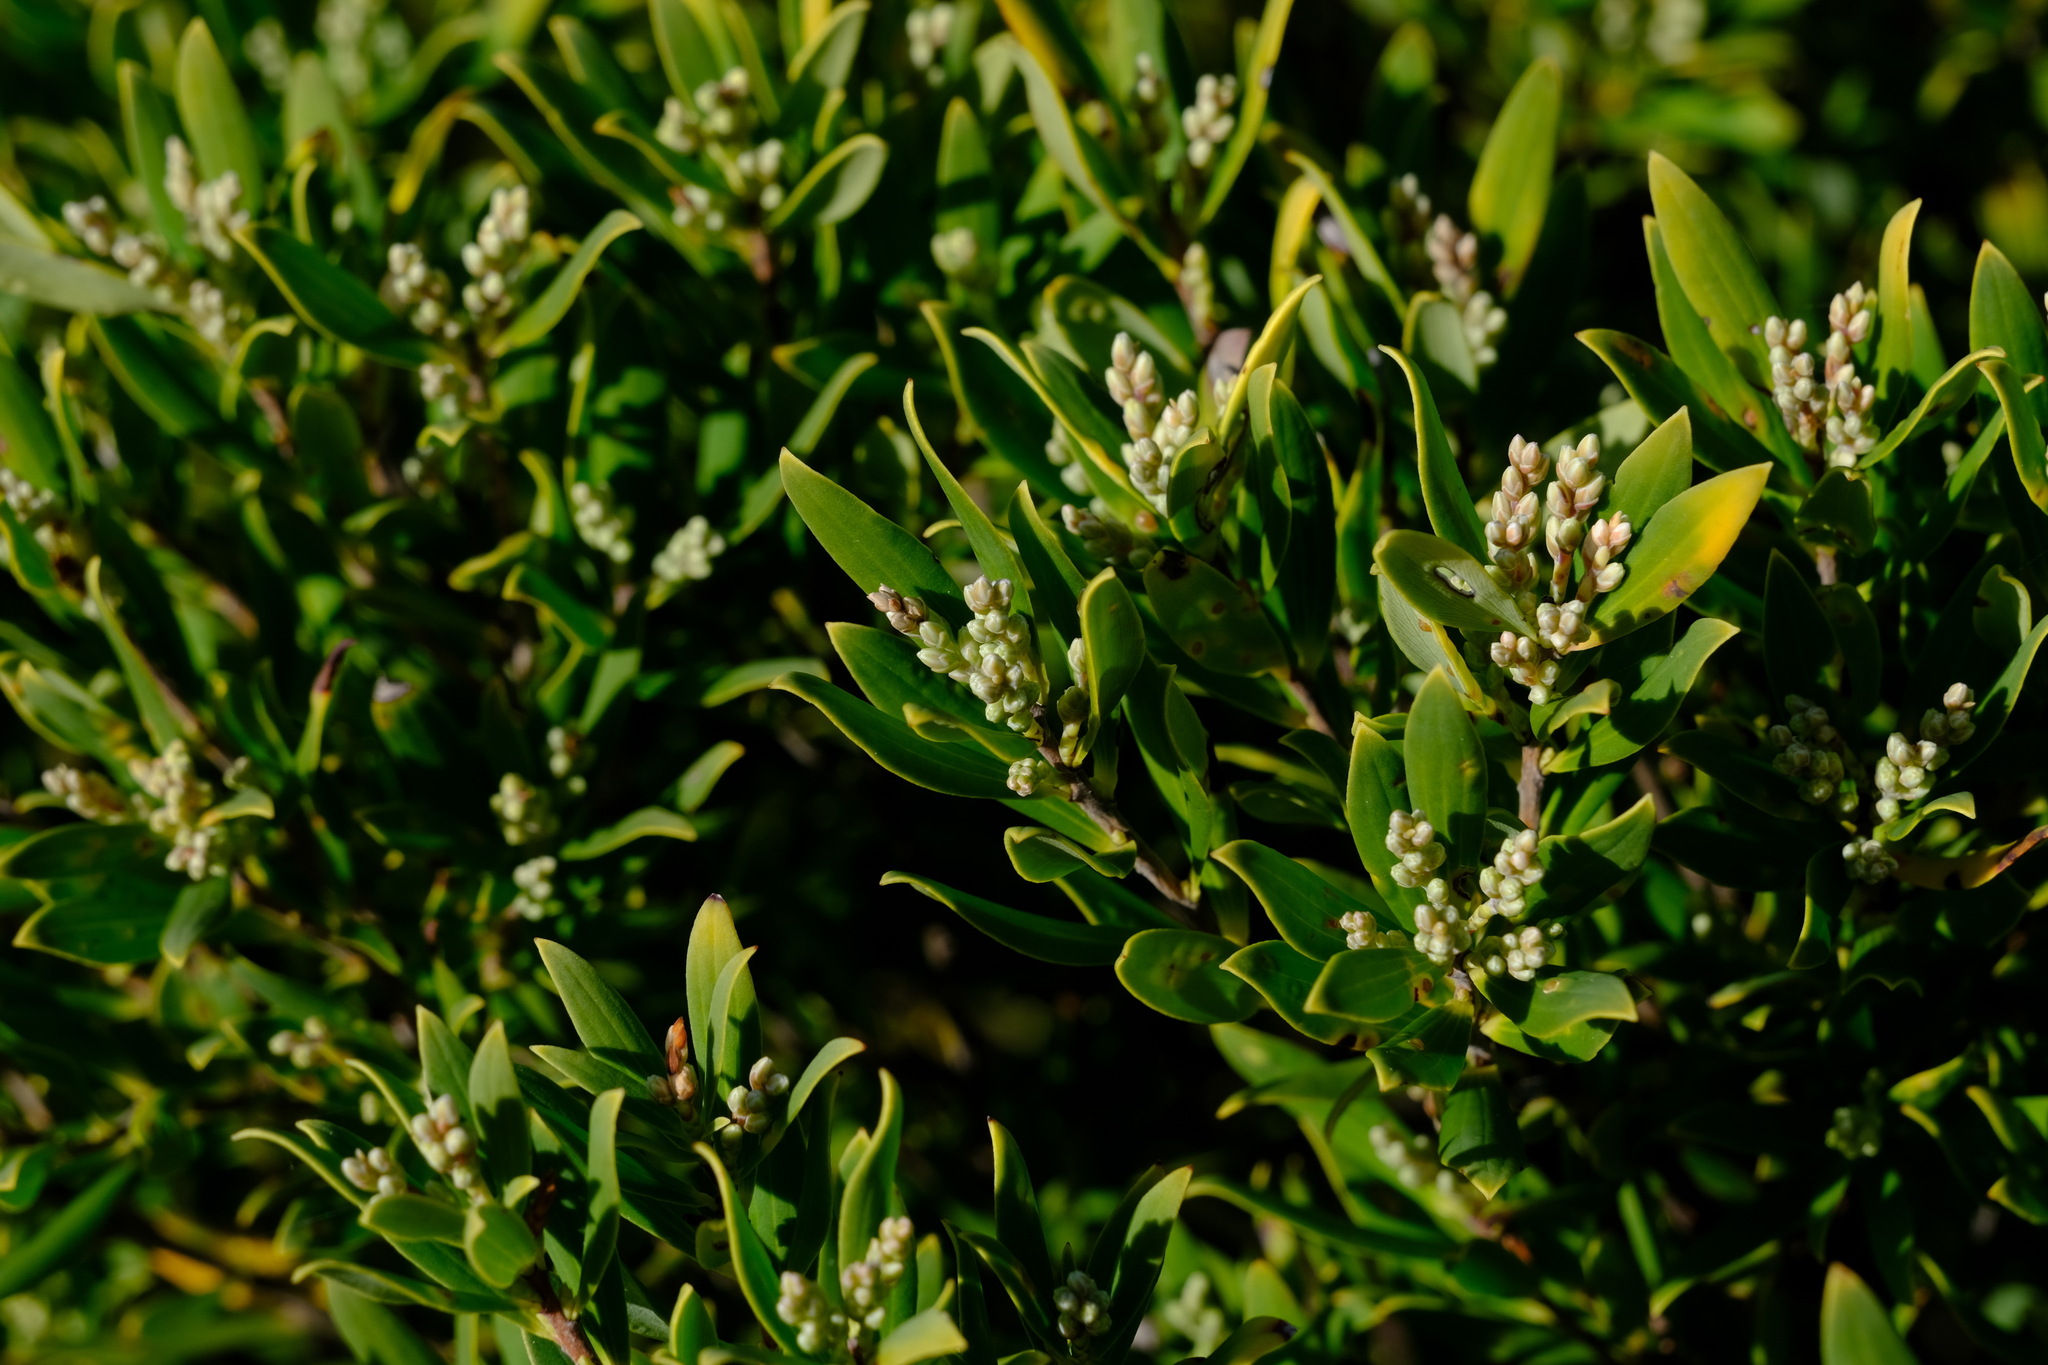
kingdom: Plantae
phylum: Tracheophyta
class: Magnoliopsida
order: Ericales
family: Ericaceae
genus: Leptecophylla
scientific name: Leptecophylla parvifolia
